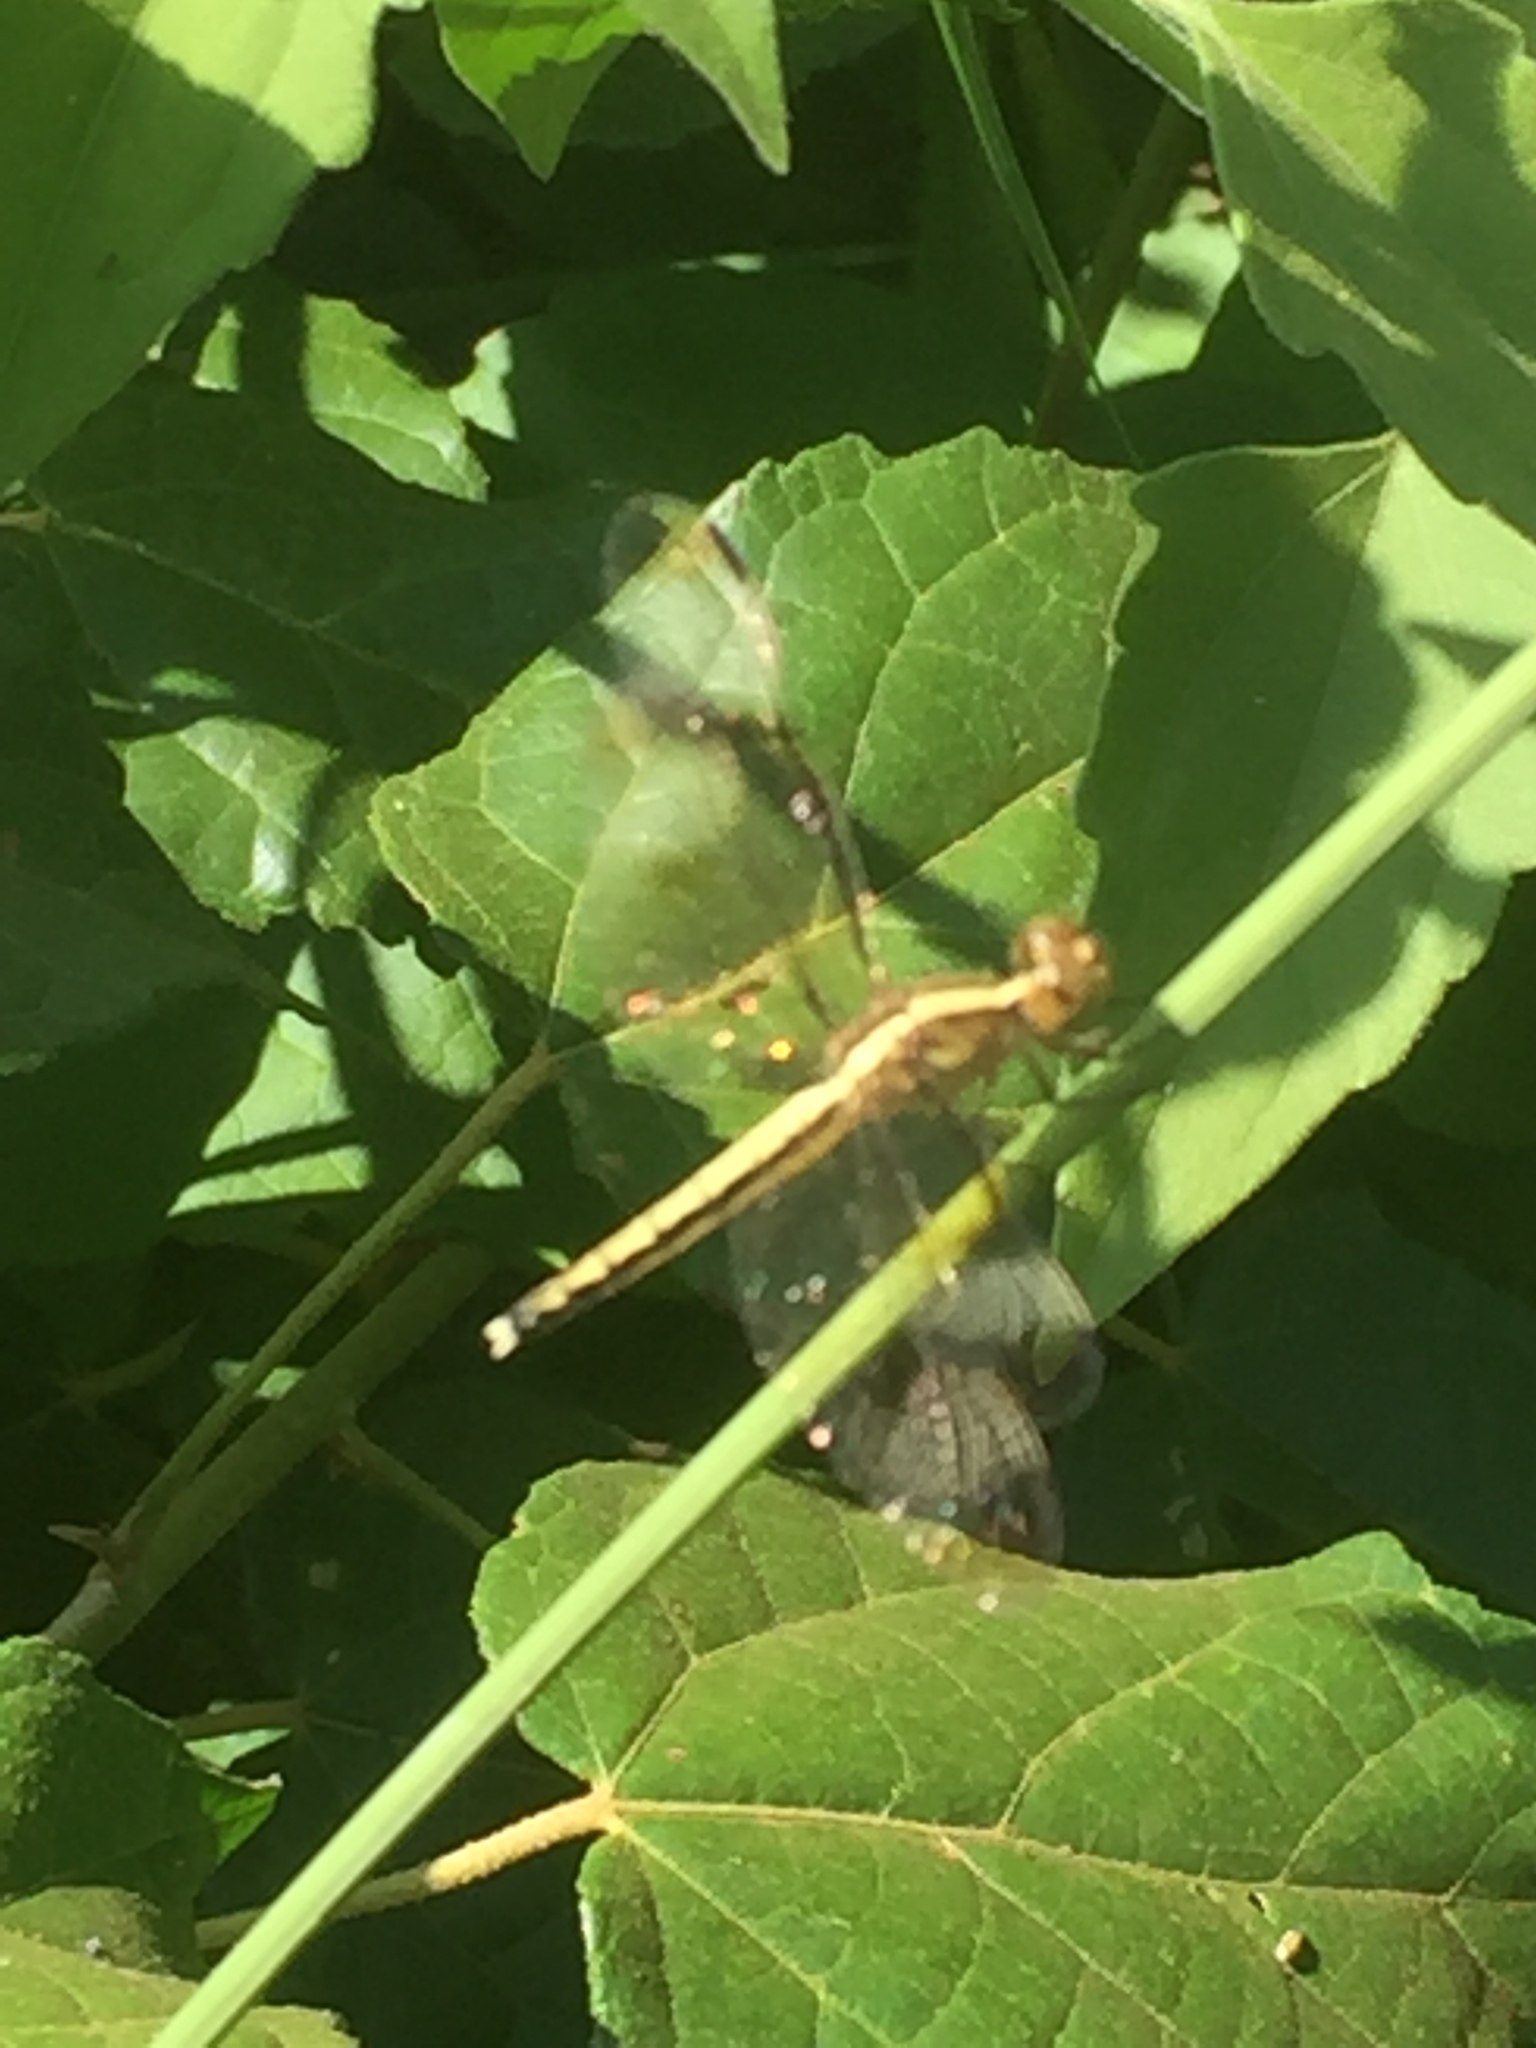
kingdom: Animalia
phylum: Arthropoda
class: Insecta
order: Odonata
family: Libellulidae
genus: Neurothemis
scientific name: Neurothemis tullia
